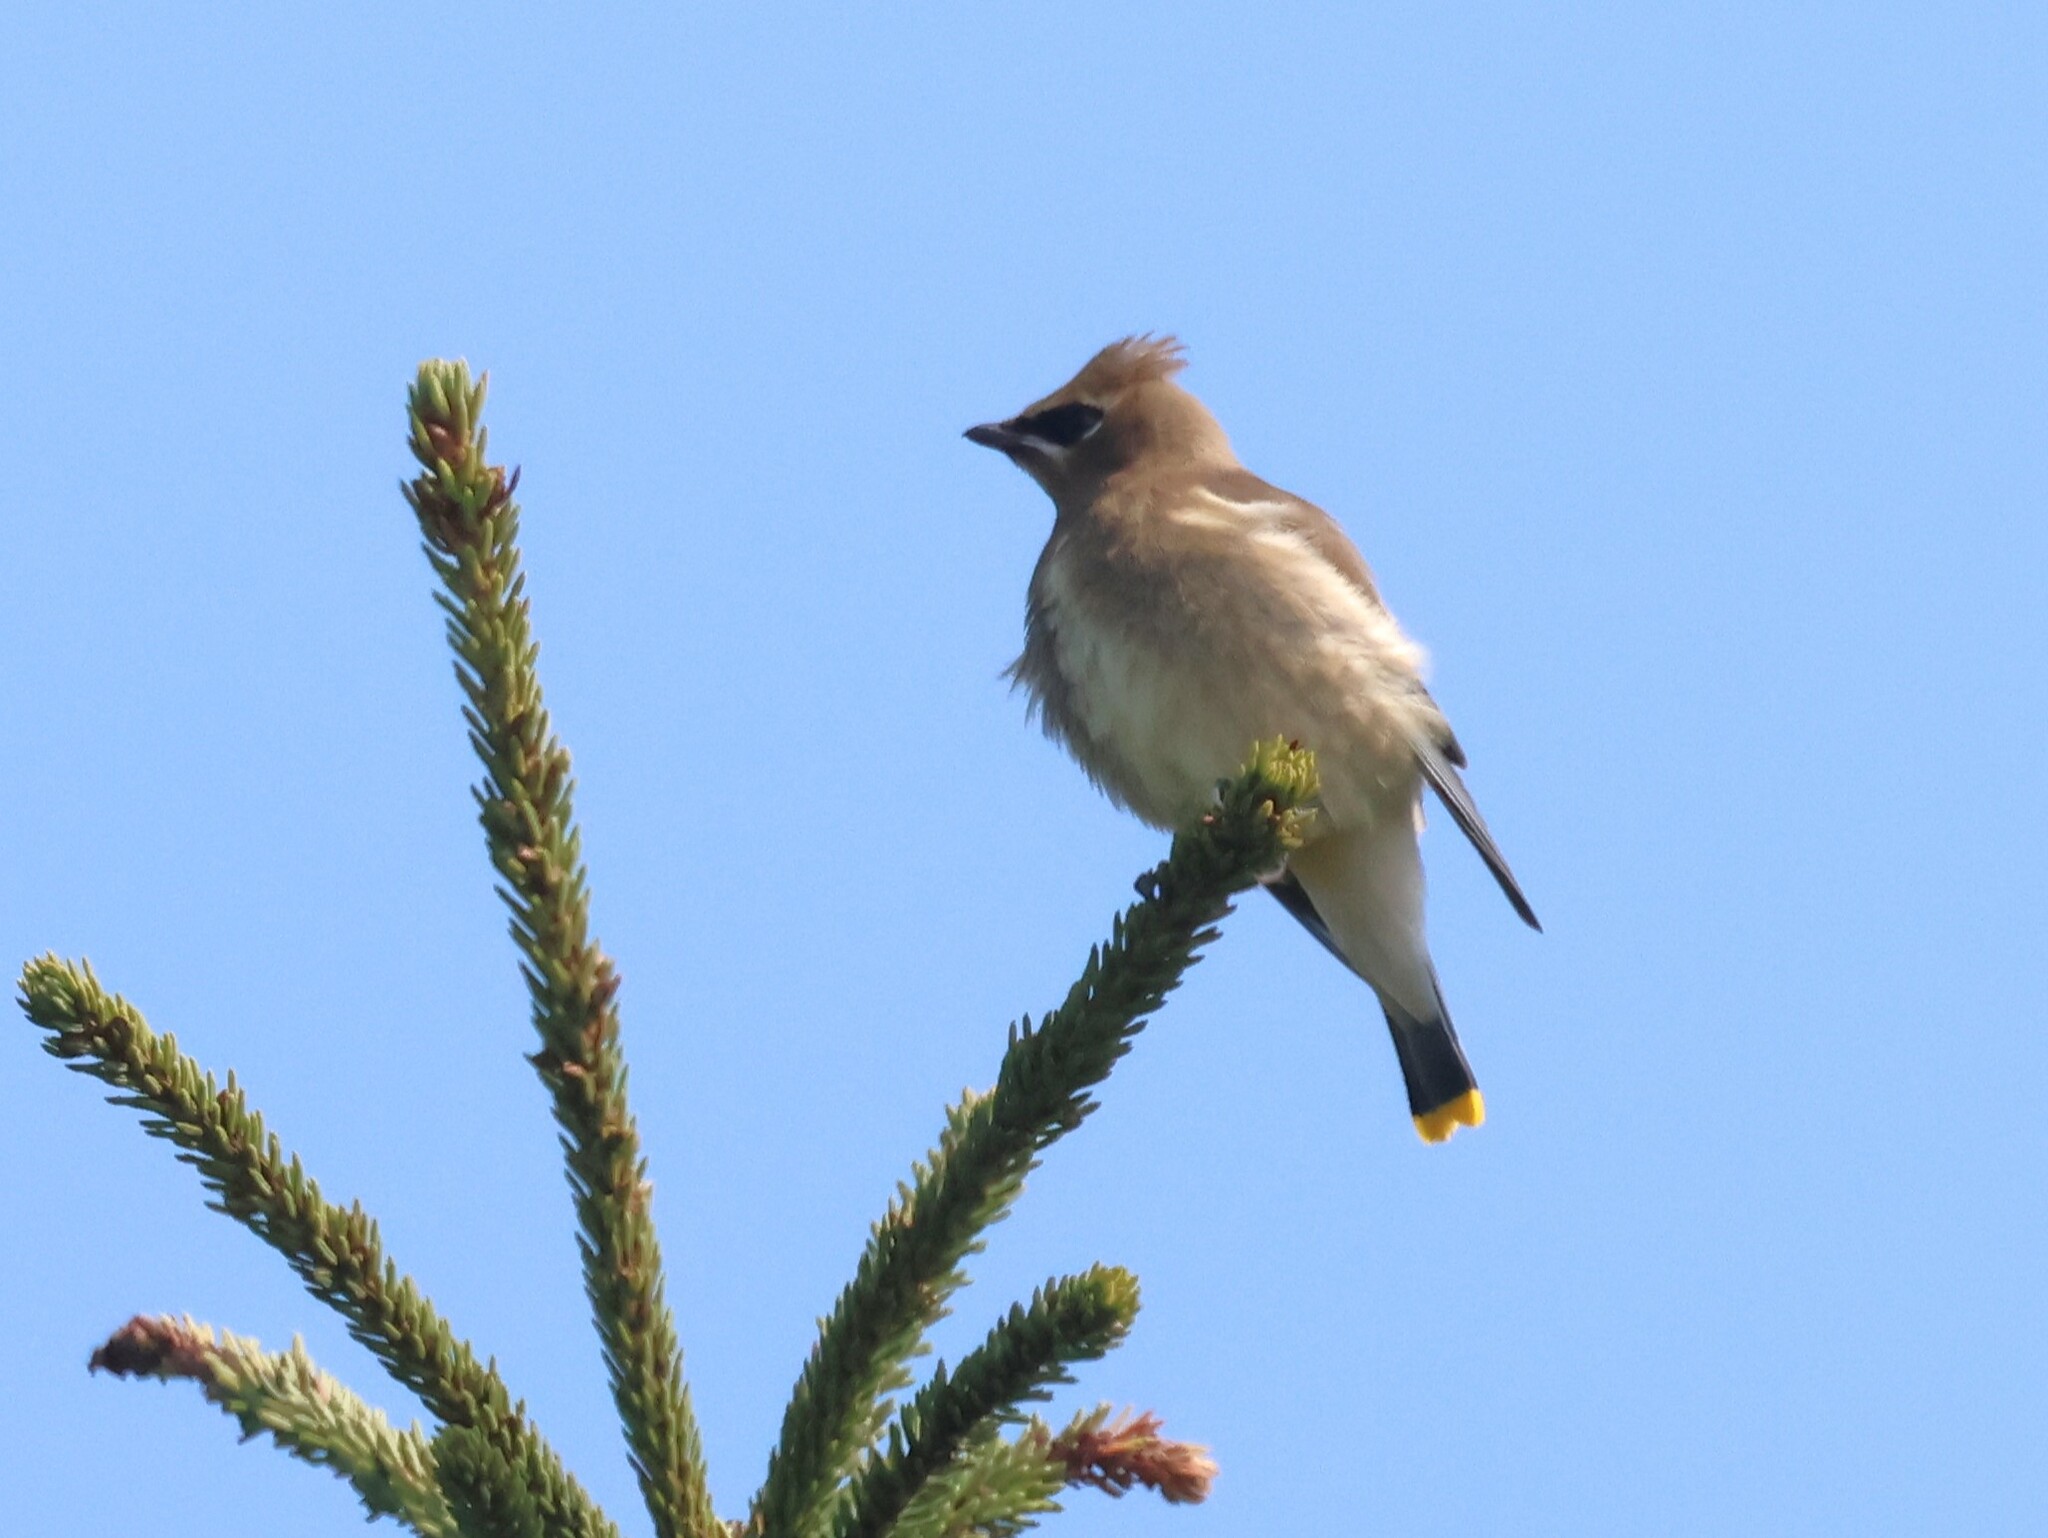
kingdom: Animalia
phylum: Chordata
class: Aves
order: Passeriformes
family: Bombycillidae
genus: Bombycilla
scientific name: Bombycilla cedrorum
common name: Cedar waxwing
